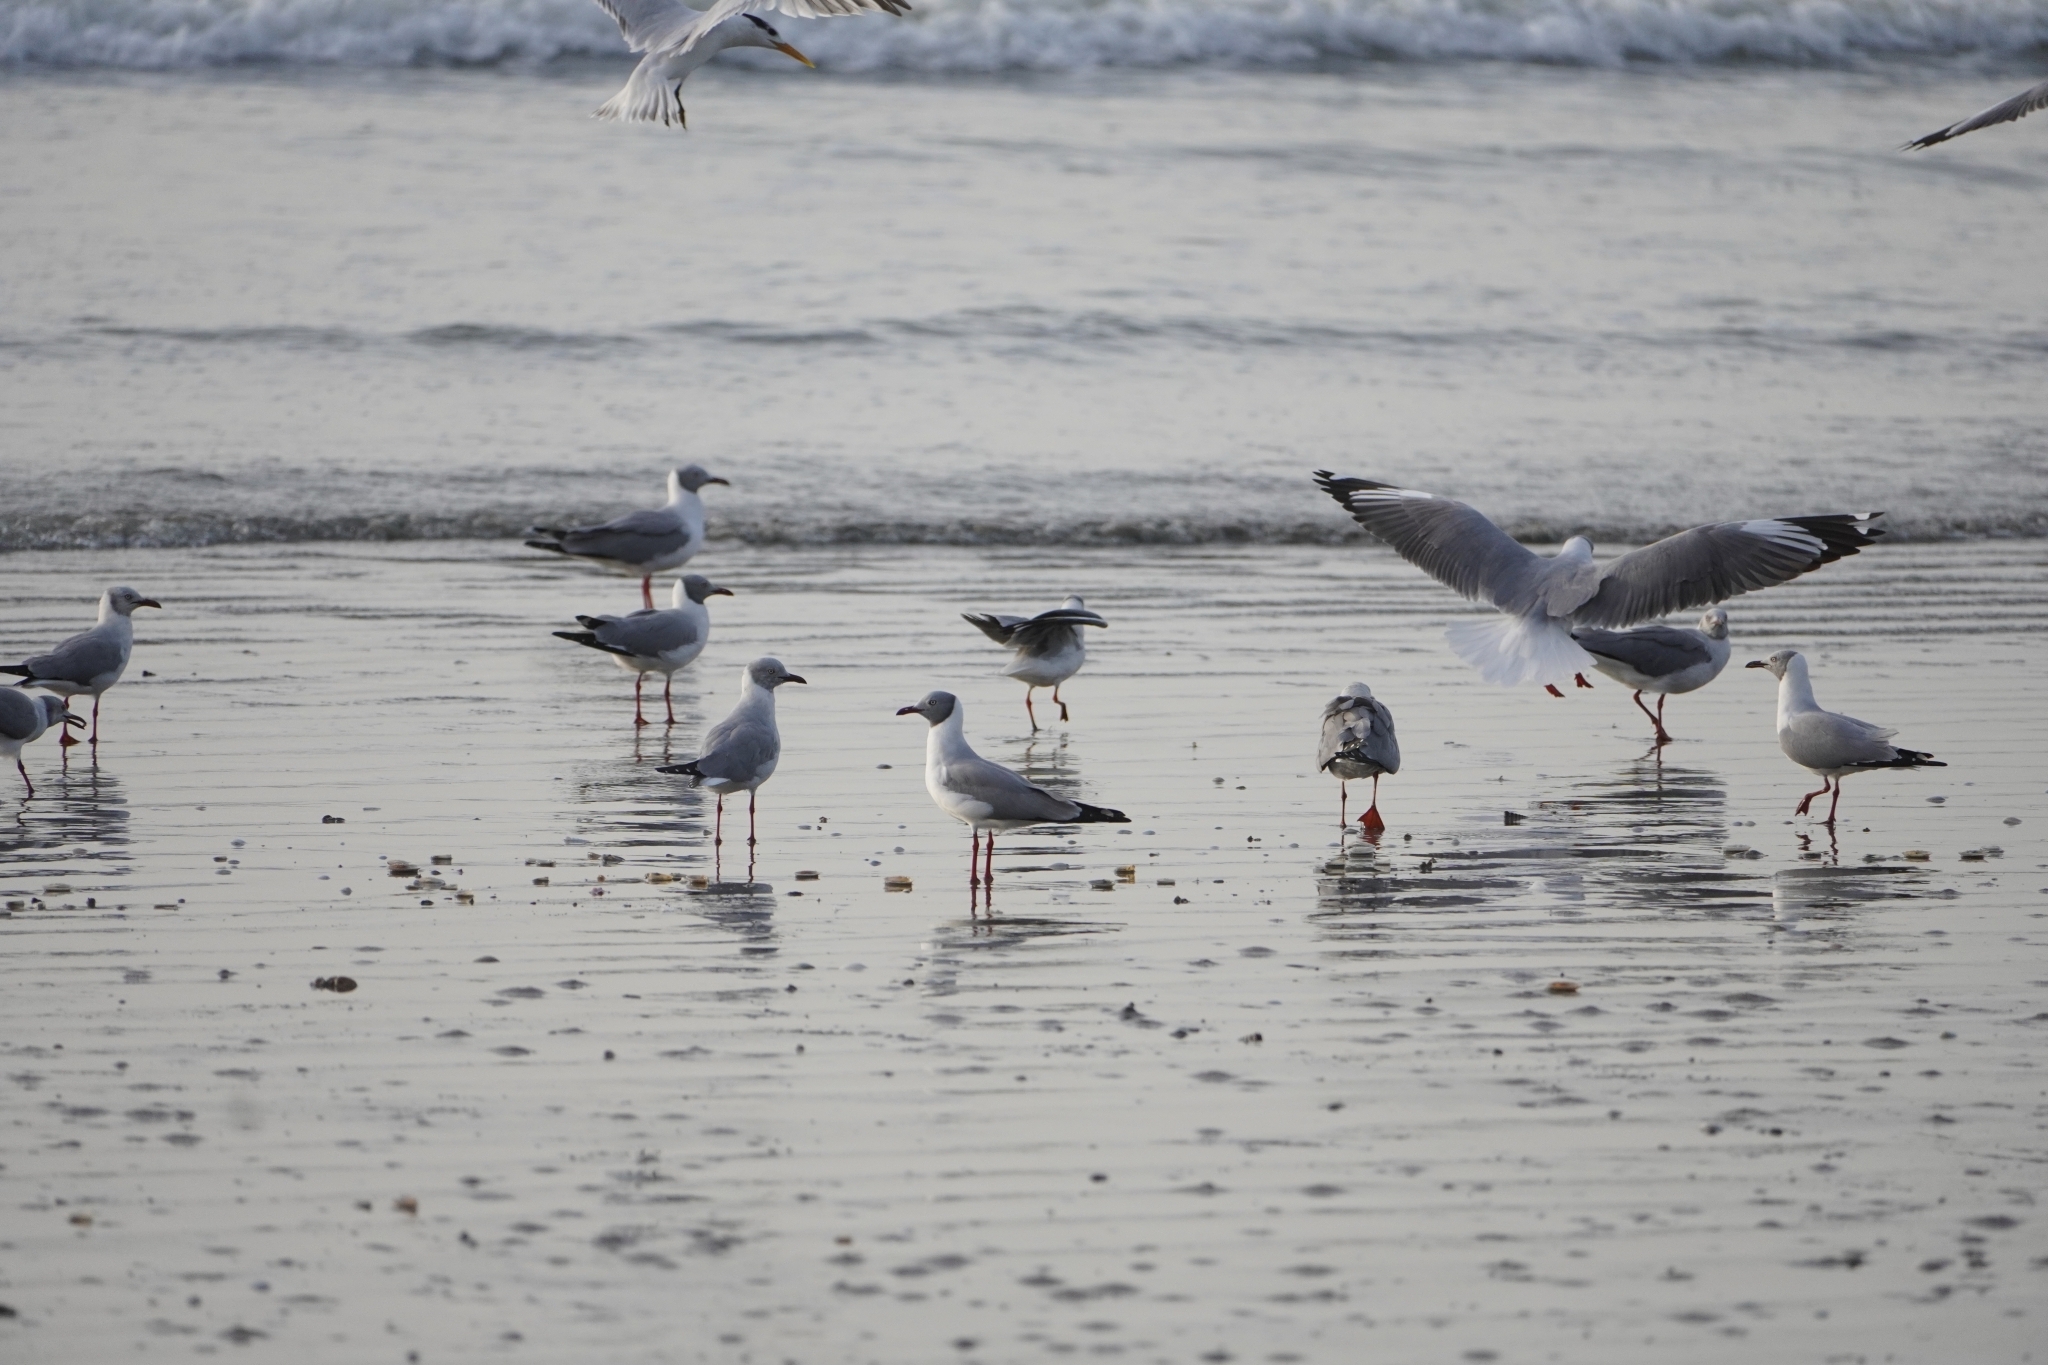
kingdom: Animalia
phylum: Chordata
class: Aves
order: Charadriiformes
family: Laridae
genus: Chroicocephalus
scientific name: Chroicocephalus cirrocephalus
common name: Grey-headed gull
